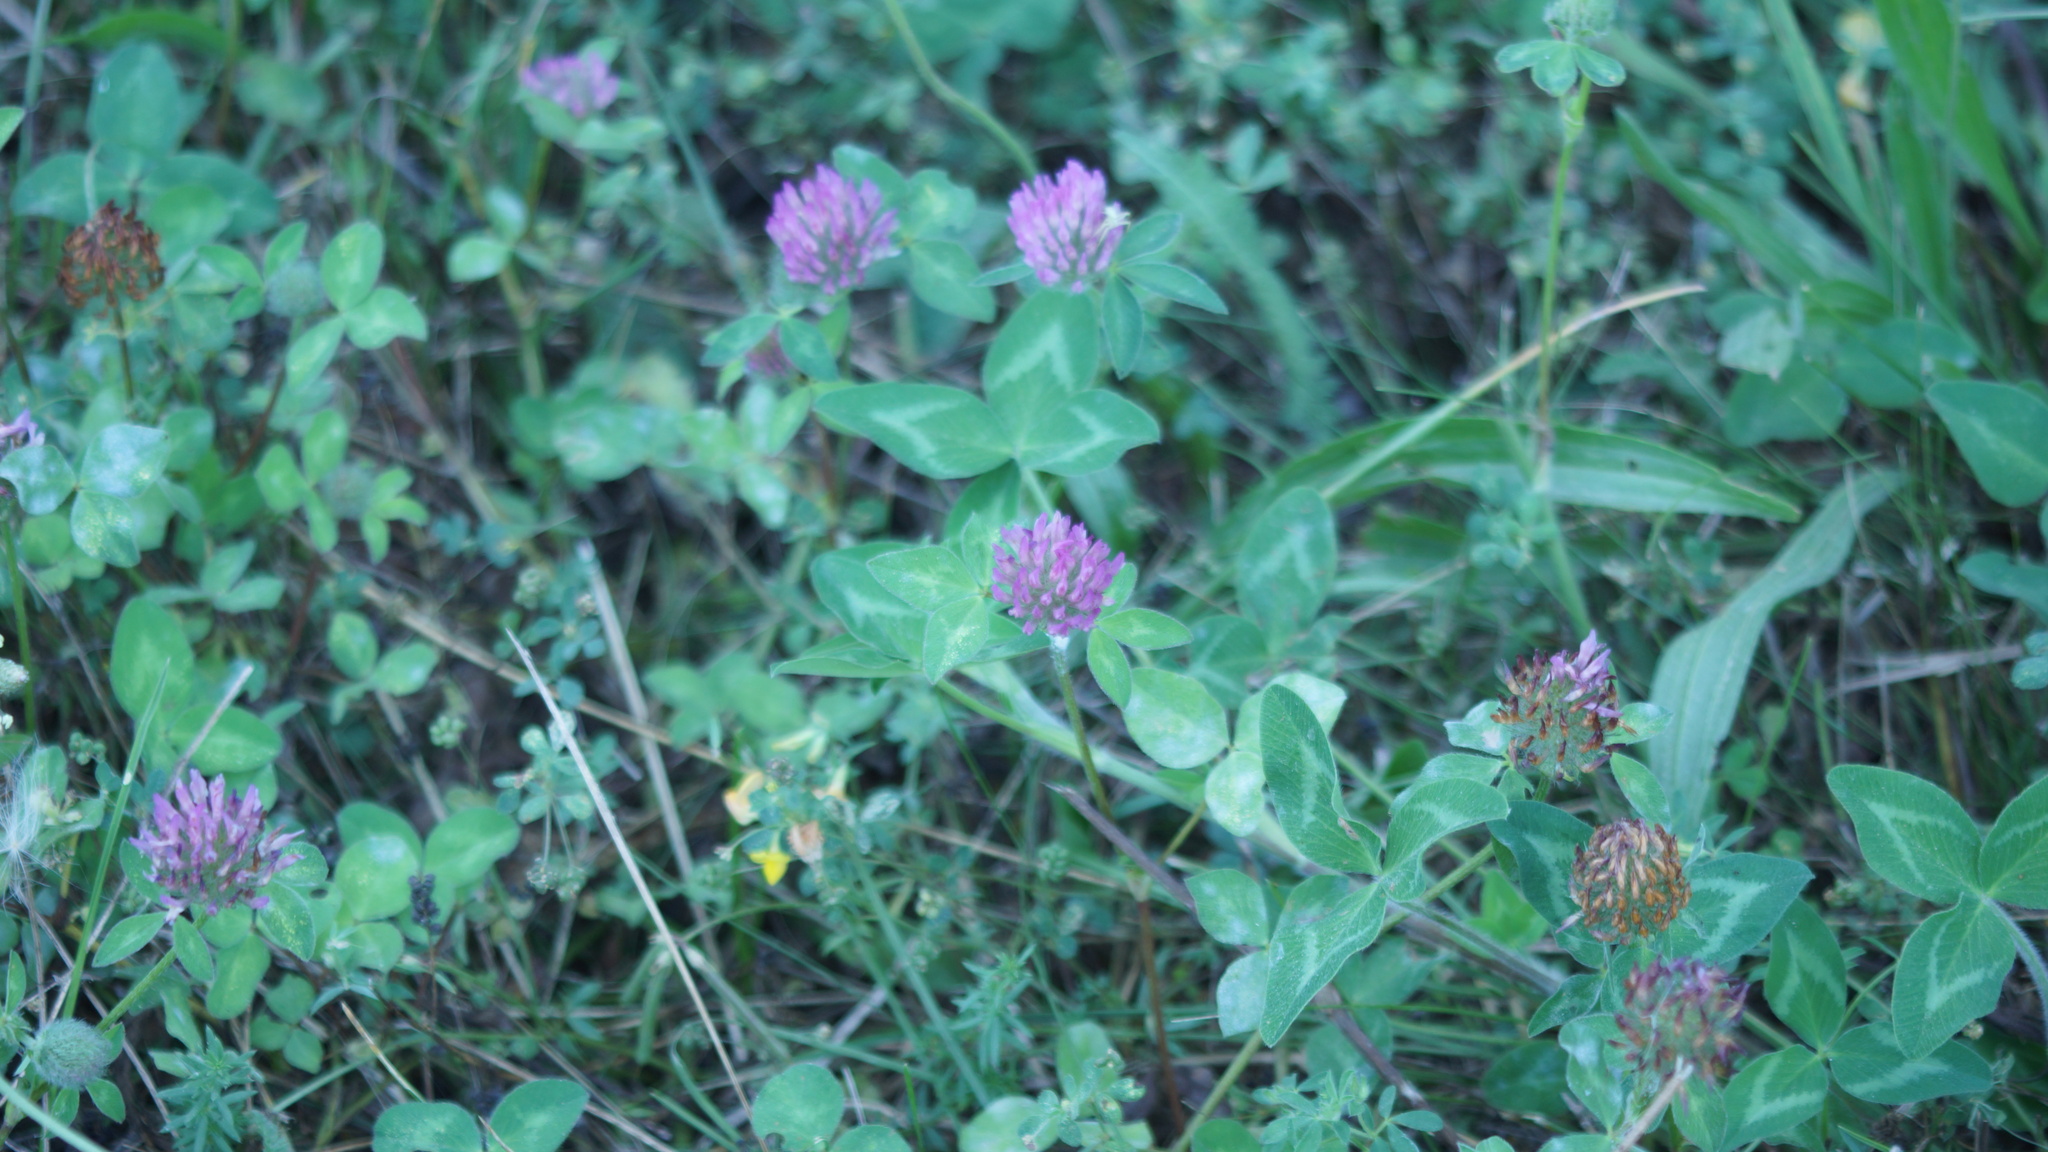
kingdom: Plantae
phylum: Tracheophyta
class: Magnoliopsida
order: Fabales
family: Fabaceae
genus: Trifolium
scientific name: Trifolium pratense
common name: Red clover
